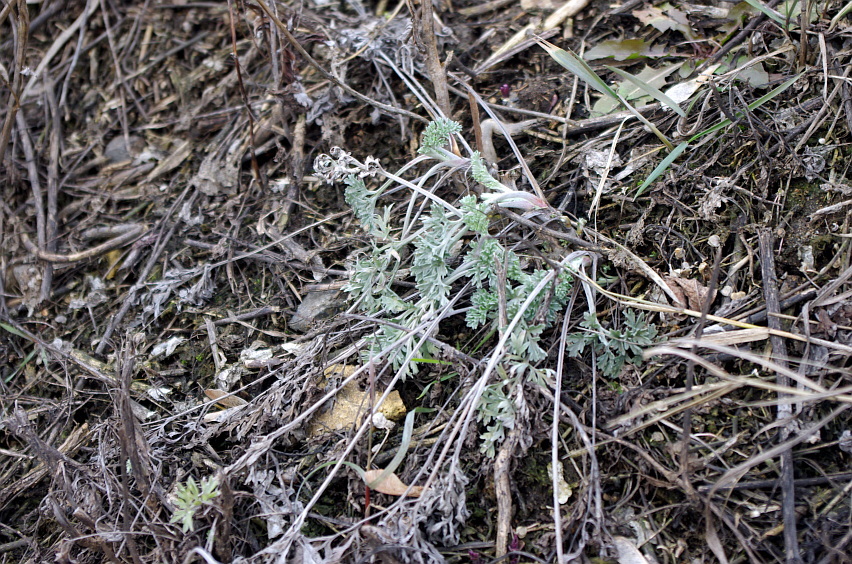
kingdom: Plantae
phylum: Tracheophyta
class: Magnoliopsida
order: Asterales
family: Asteraceae
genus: Artemisia
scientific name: Artemisia absinthium
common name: Wormwood
